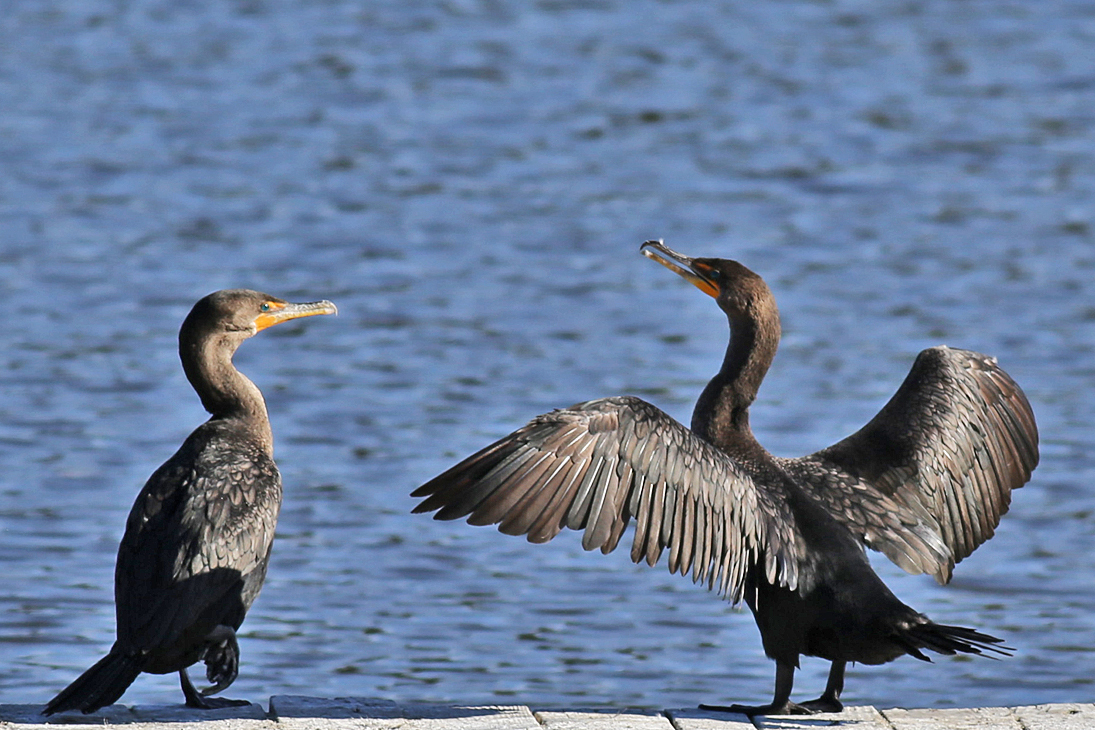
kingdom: Animalia
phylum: Chordata
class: Aves
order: Suliformes
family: Phalacrocoracidae
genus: Phalacrocorax
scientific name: Phalacrocorax auritus
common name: Double-crested cormorant
